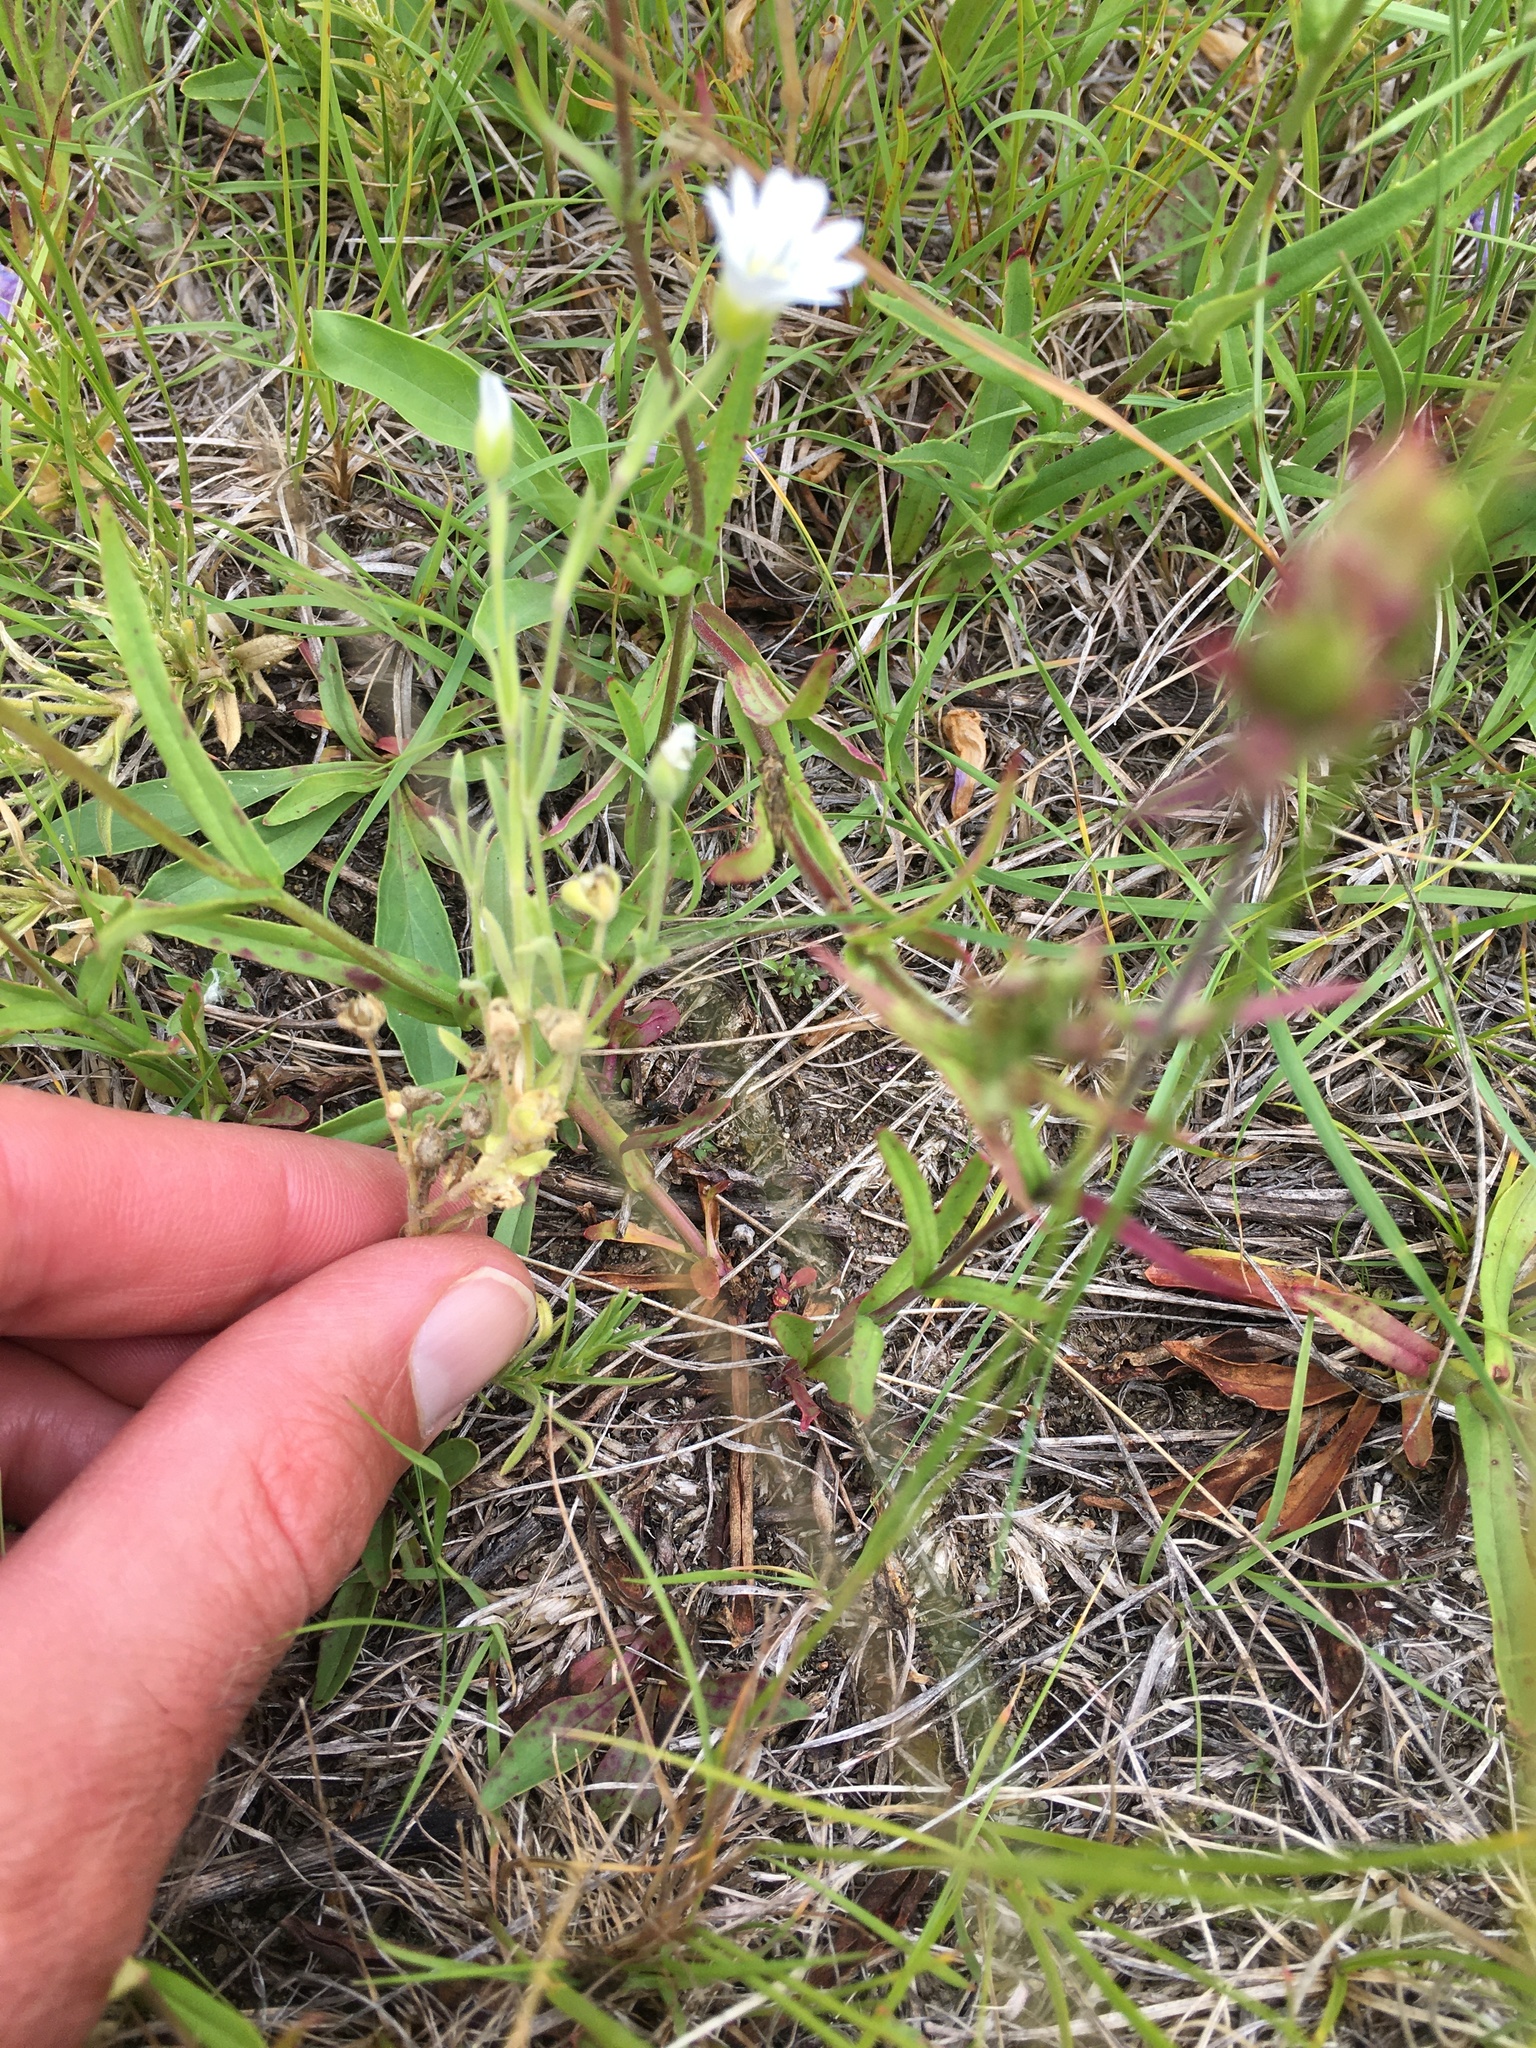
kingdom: Plantae
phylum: Tracheophyta
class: Magnoliopsida
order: Caryophyllales
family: Caryophyllaceae
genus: Cerastium
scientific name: Cerastium arvense
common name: Field mouse-ear
